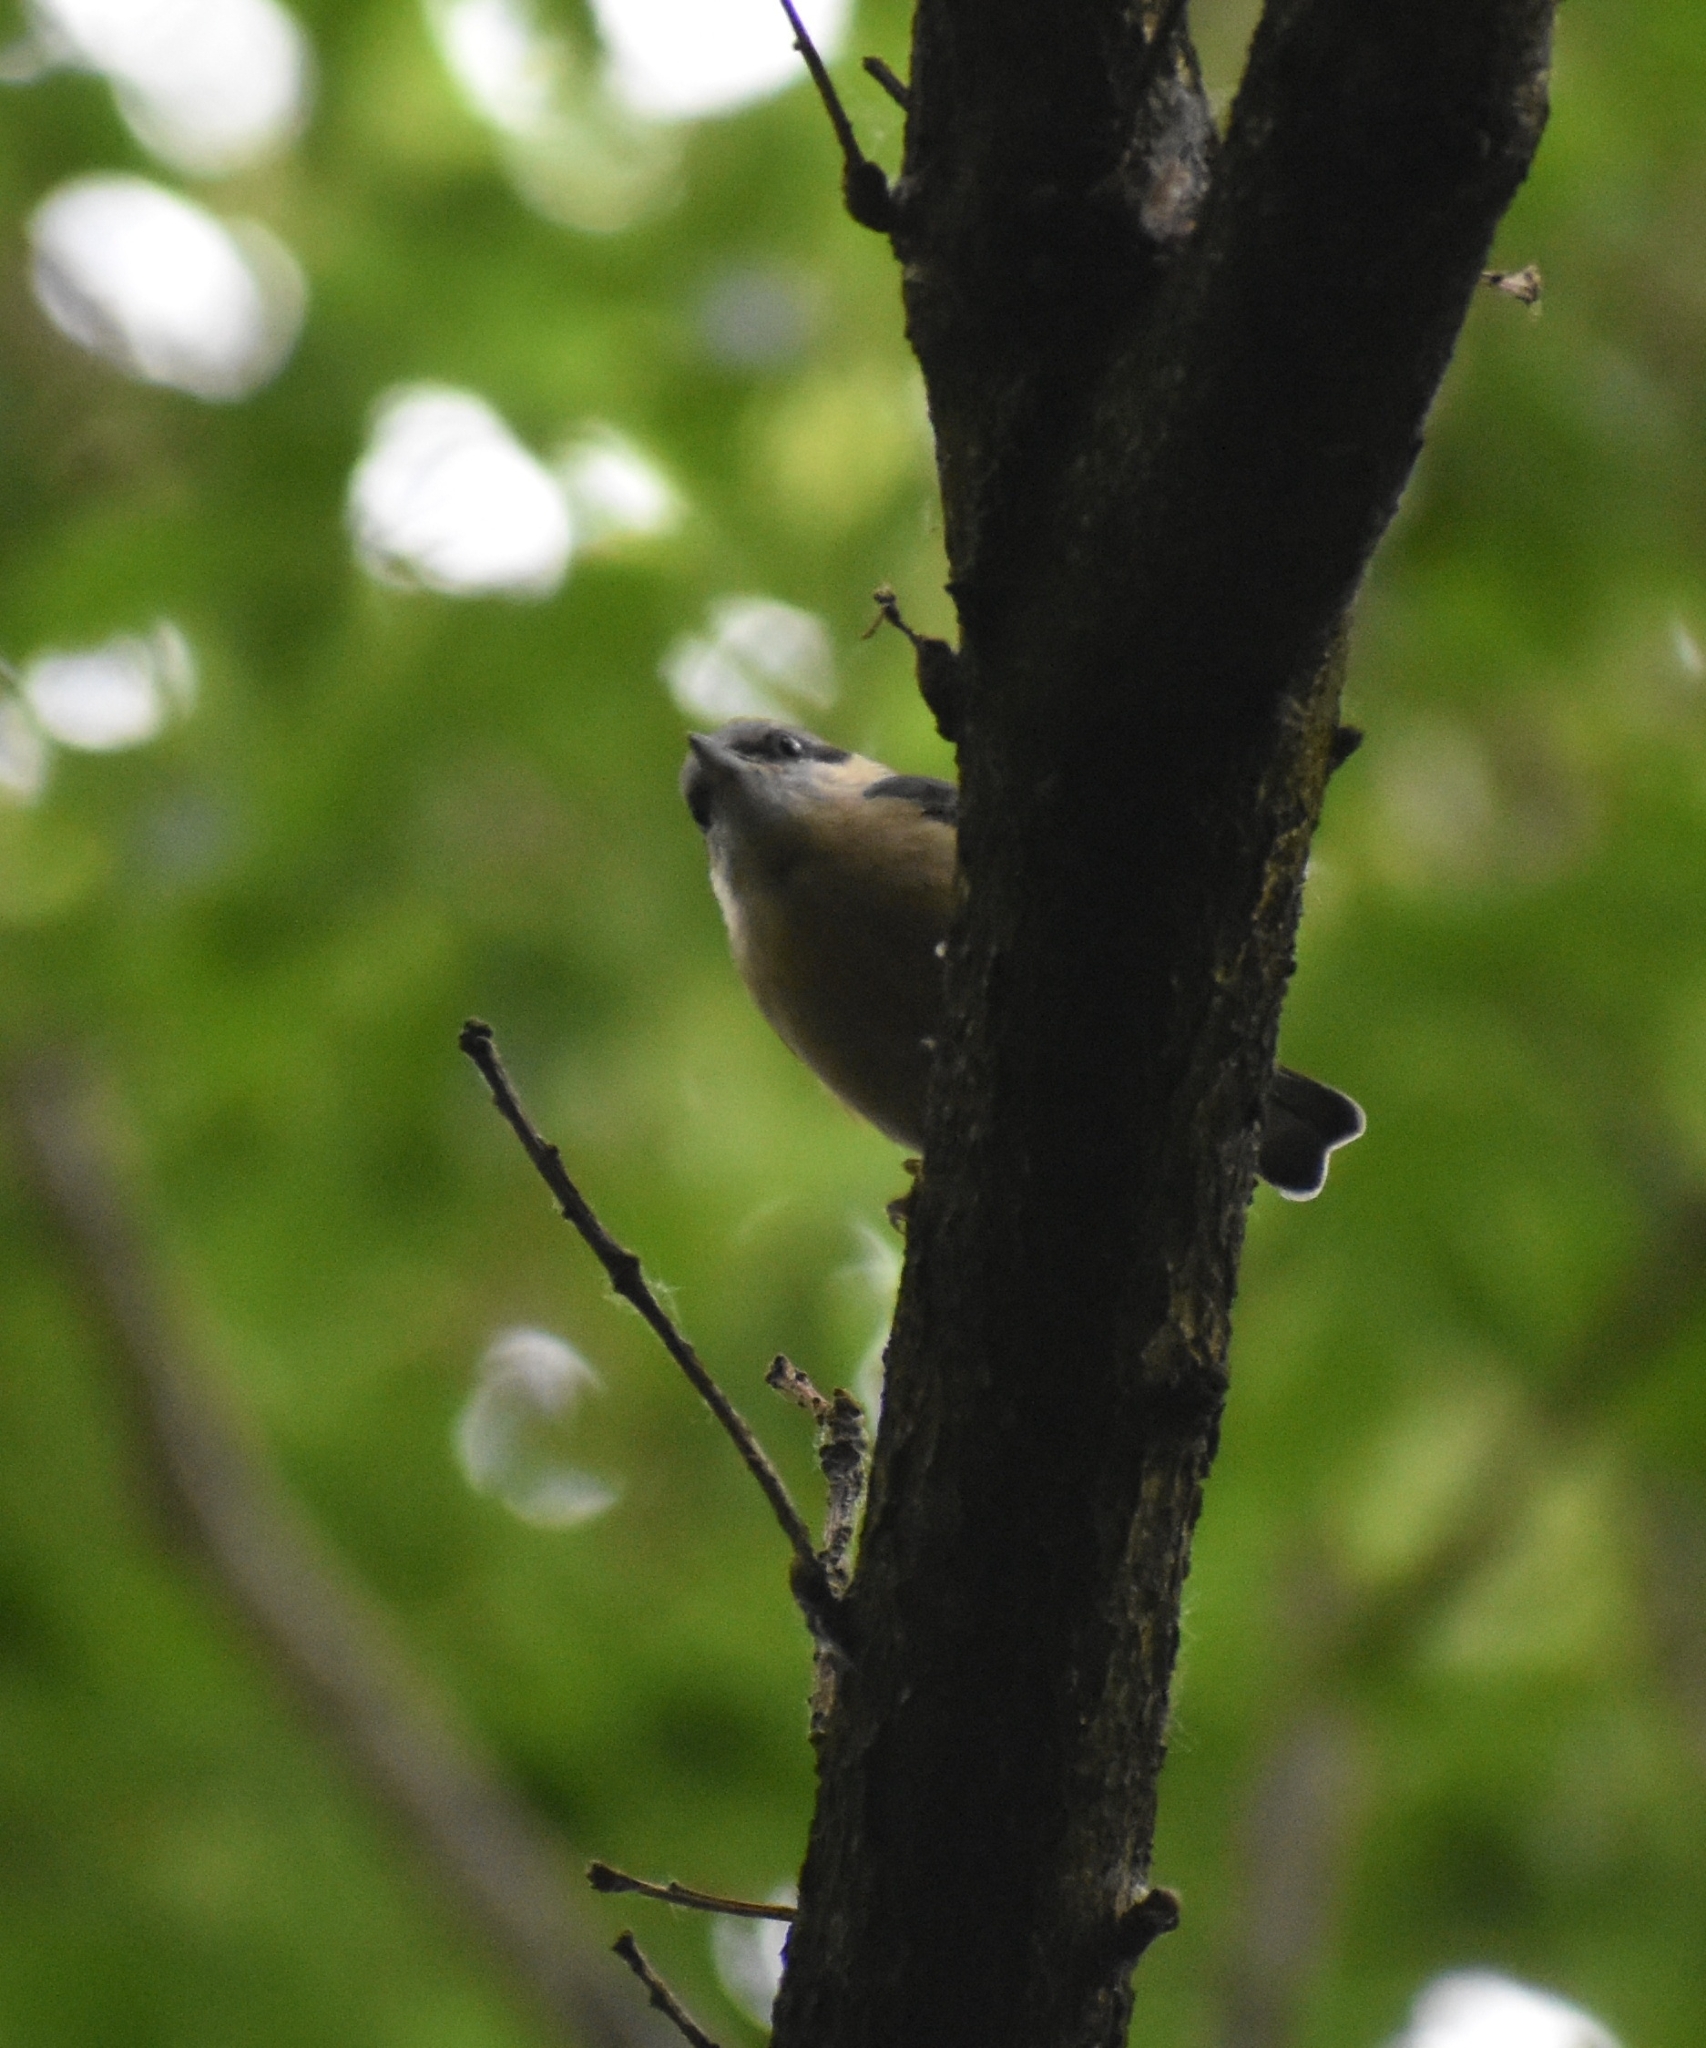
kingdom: Animalia
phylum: Chordata
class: Aves
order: Passeriformes
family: Sittidae
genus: Sitta
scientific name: Sitta europaea
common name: Eurasian nuthatch
